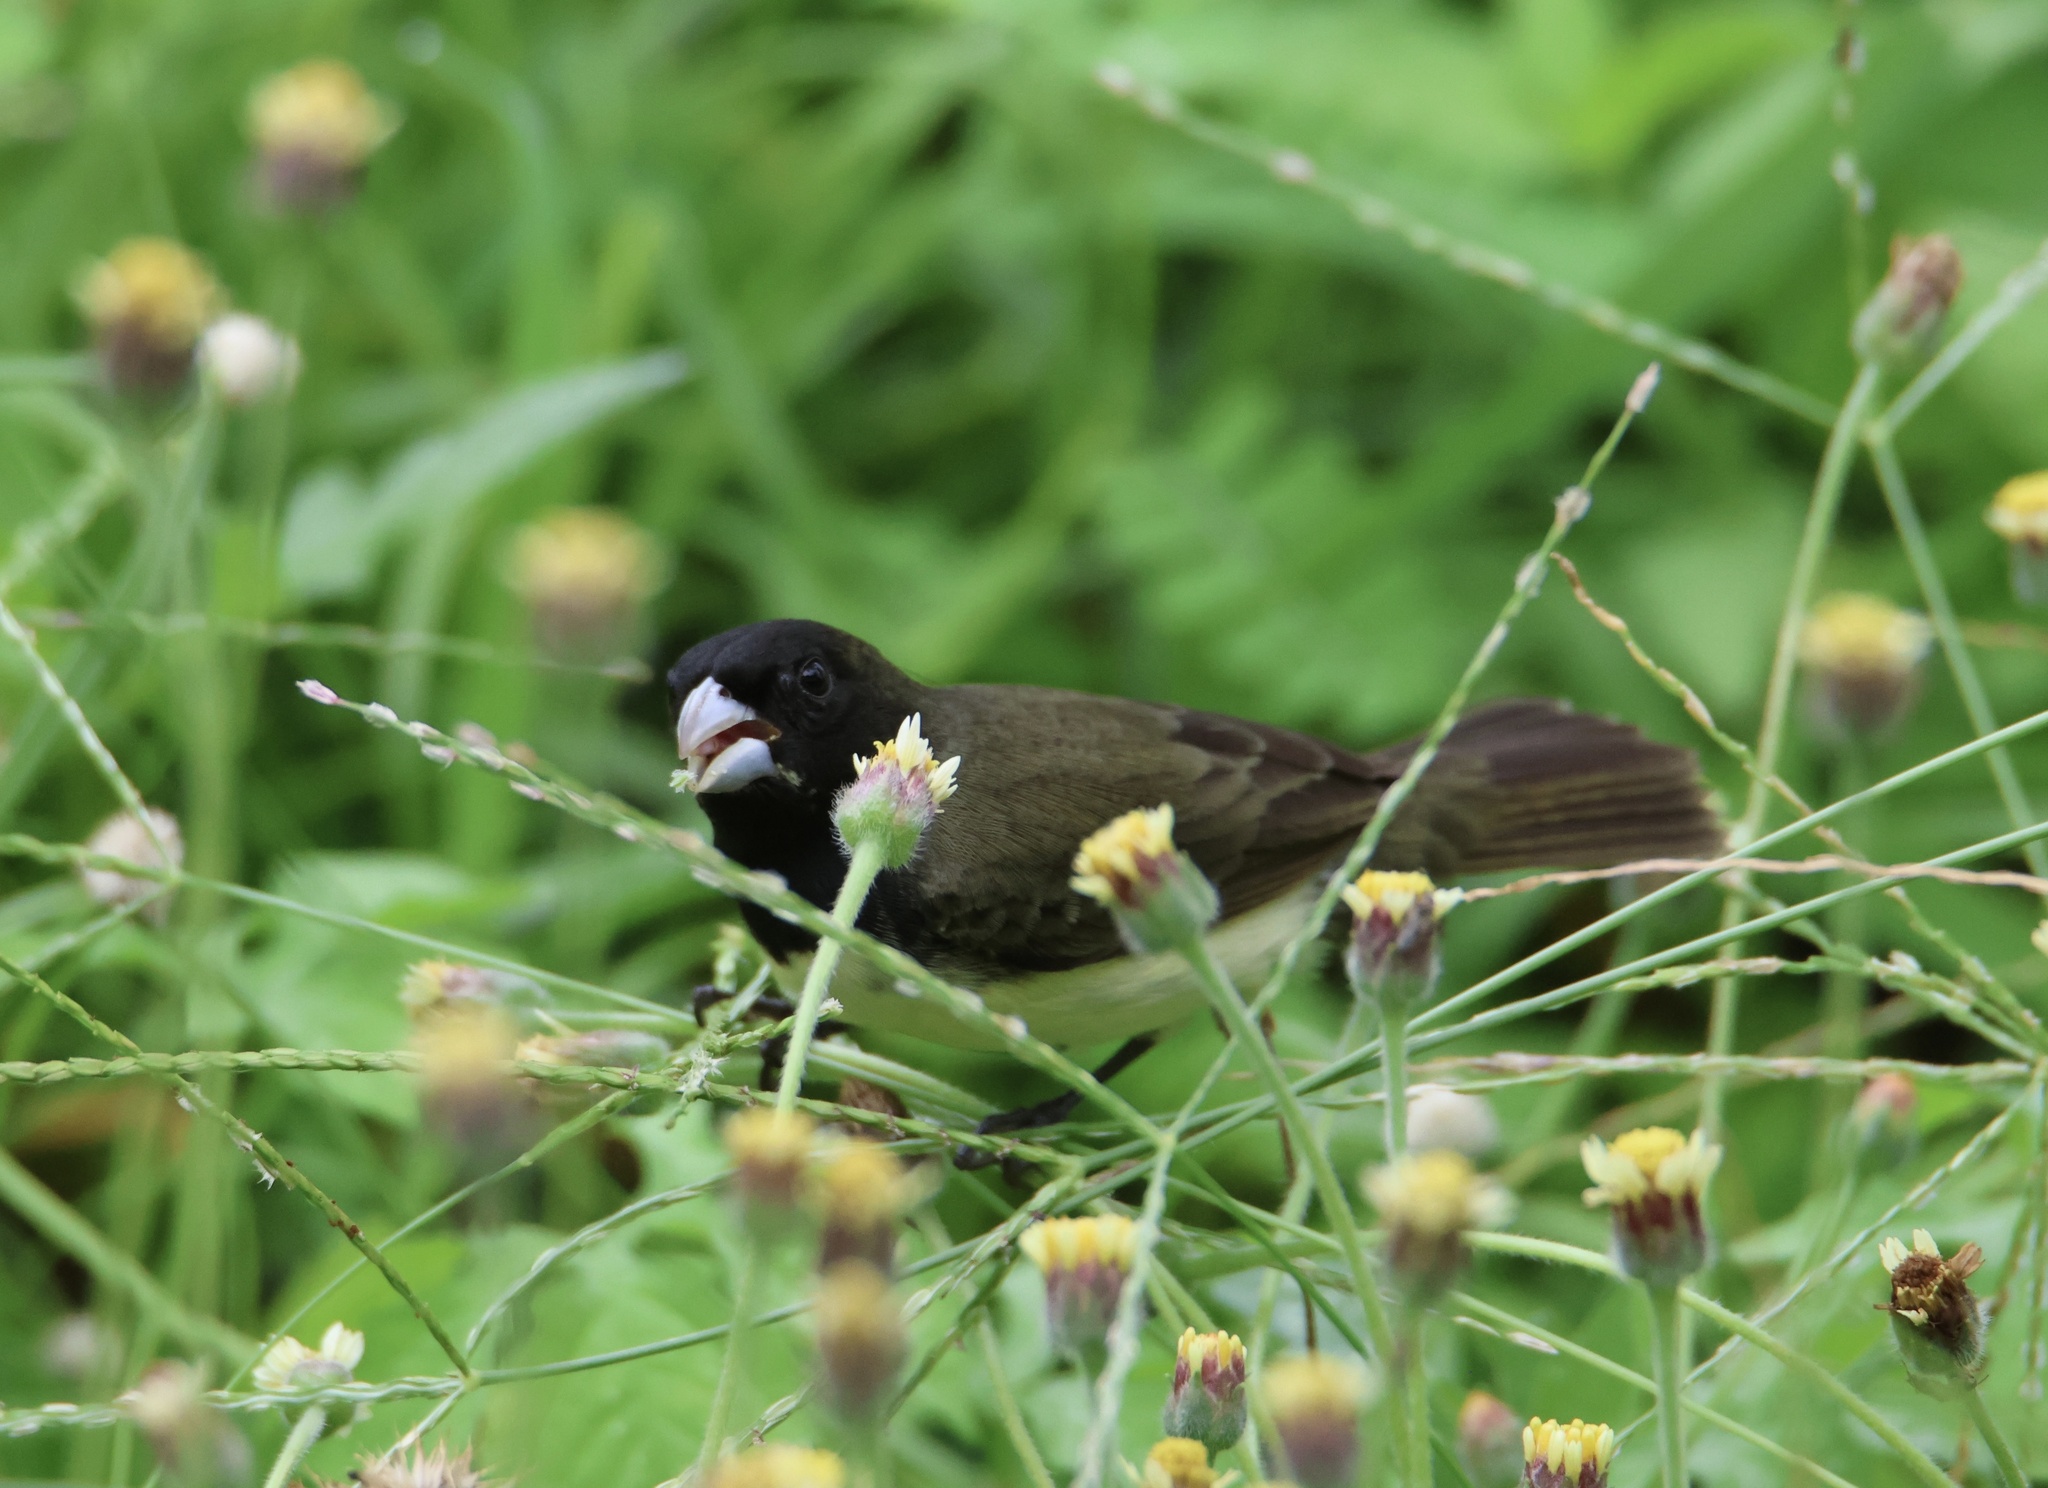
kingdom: Animalia
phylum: Chordata
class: Aves
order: Passeriformes
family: Thraupidae
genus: Sporophila
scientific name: Sporophila nigricollis
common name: Yellow-bellied seedeater
